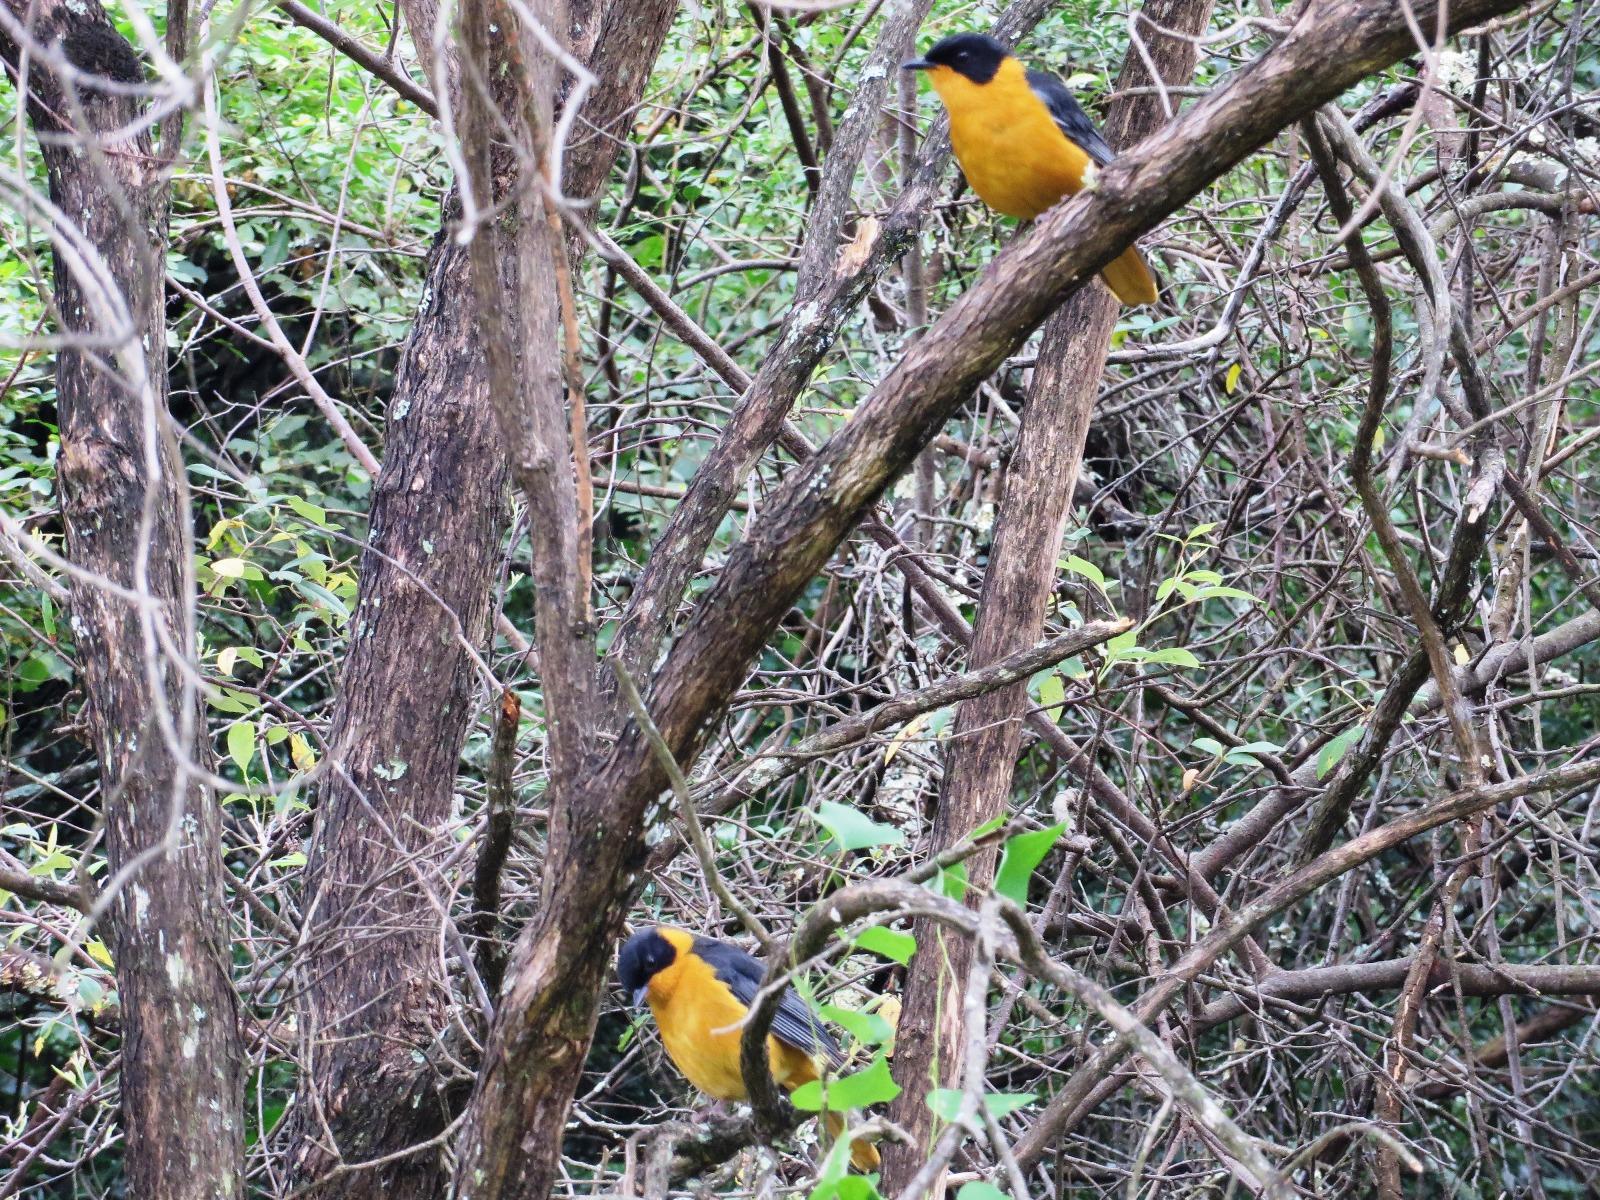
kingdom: Animalia
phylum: Chordata
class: Aves
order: Passeriformes
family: Muscicapidae
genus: Cossypha
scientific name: Cossypha dichroa
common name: Chorister robin-chat
